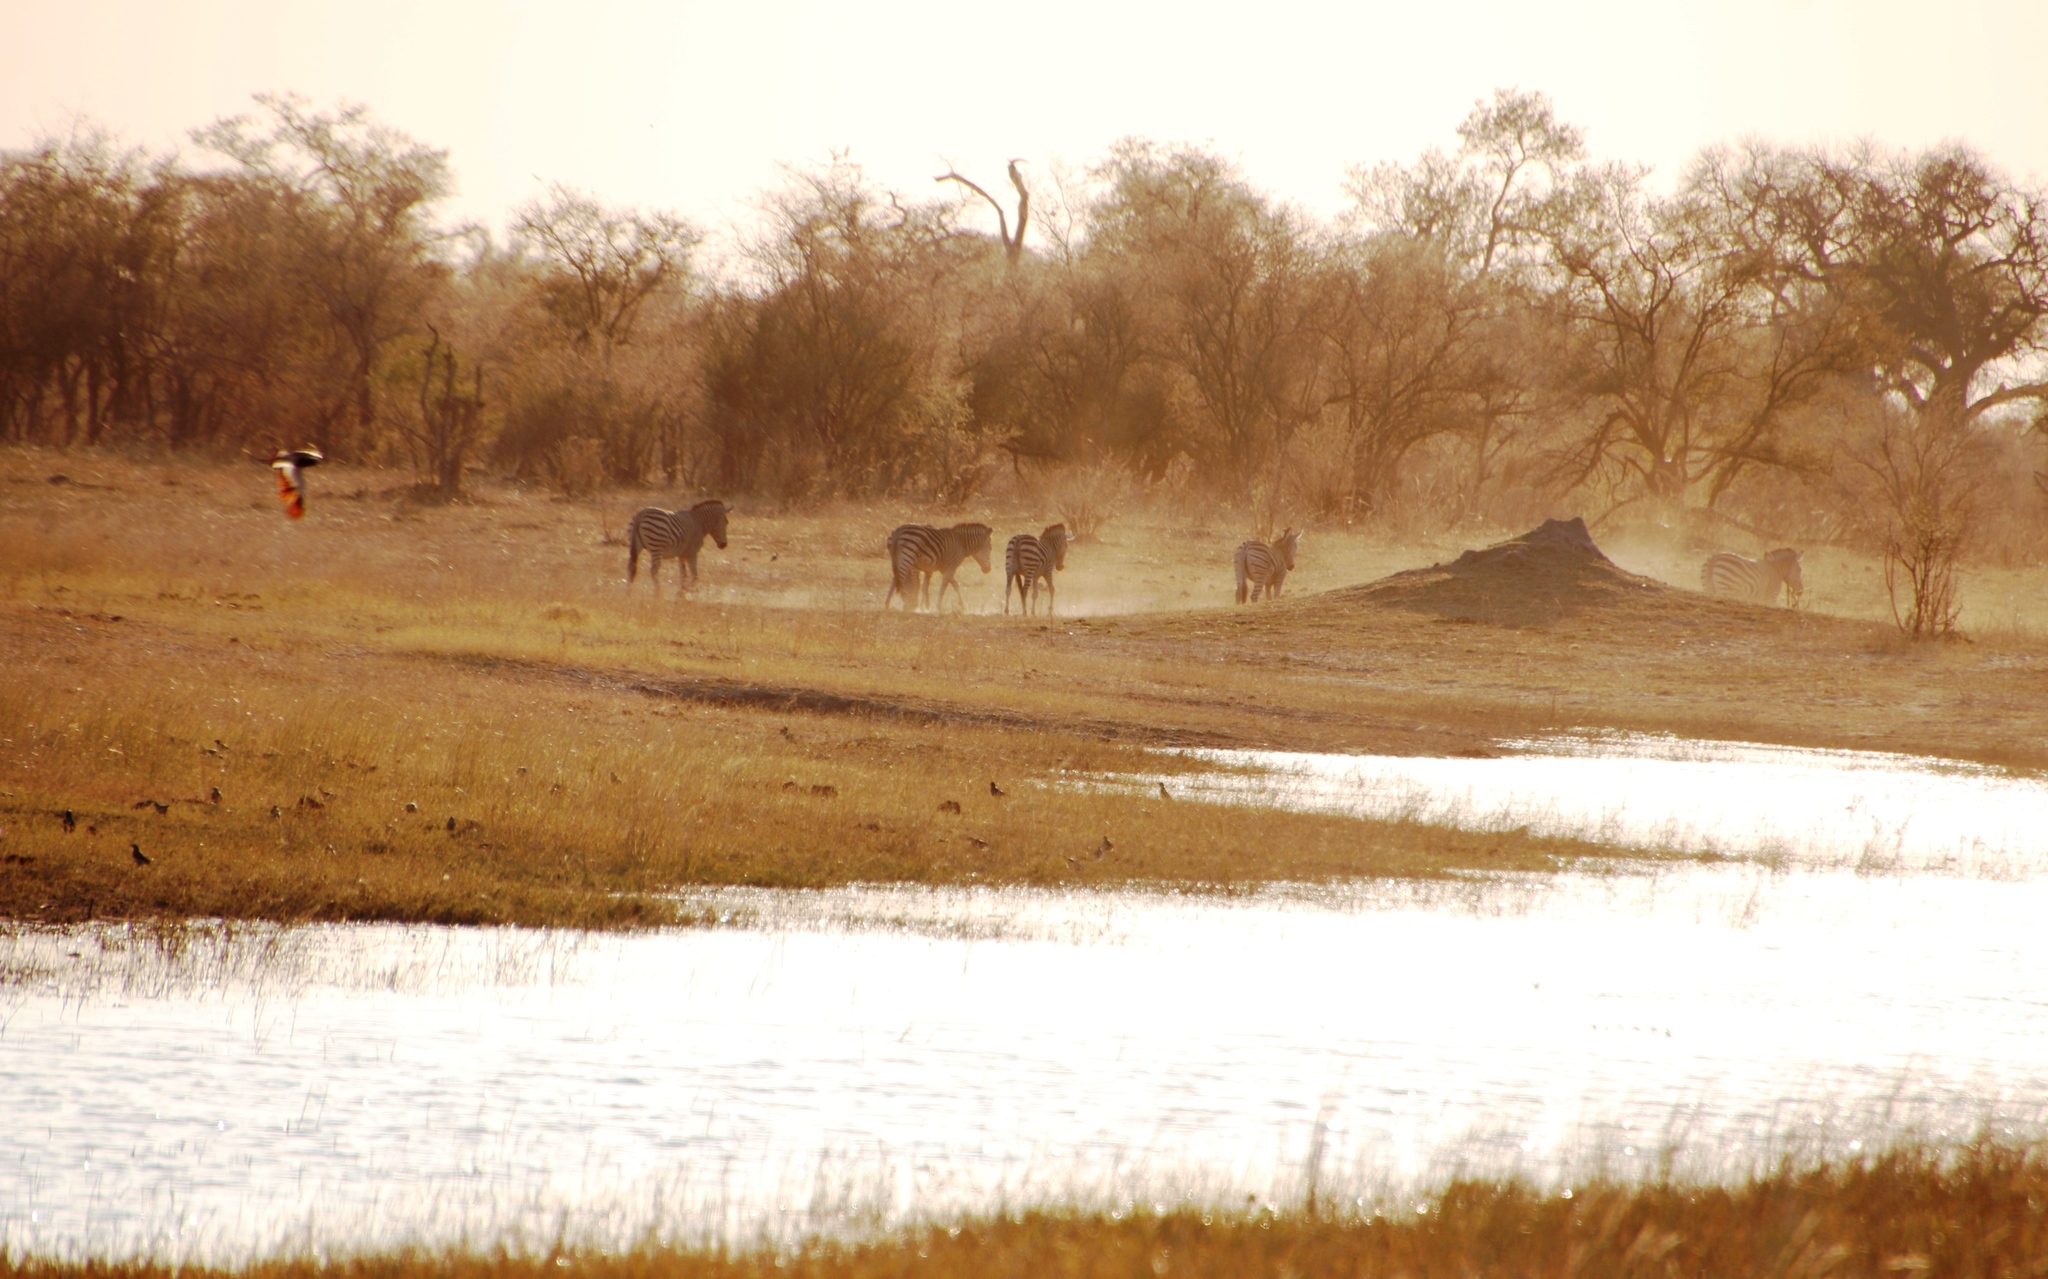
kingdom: Animalia
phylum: Chordata
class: Mammalia
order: Perissodactyla
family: Equidae
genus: Equus
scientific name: Equus quagga
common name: Plains zebra
